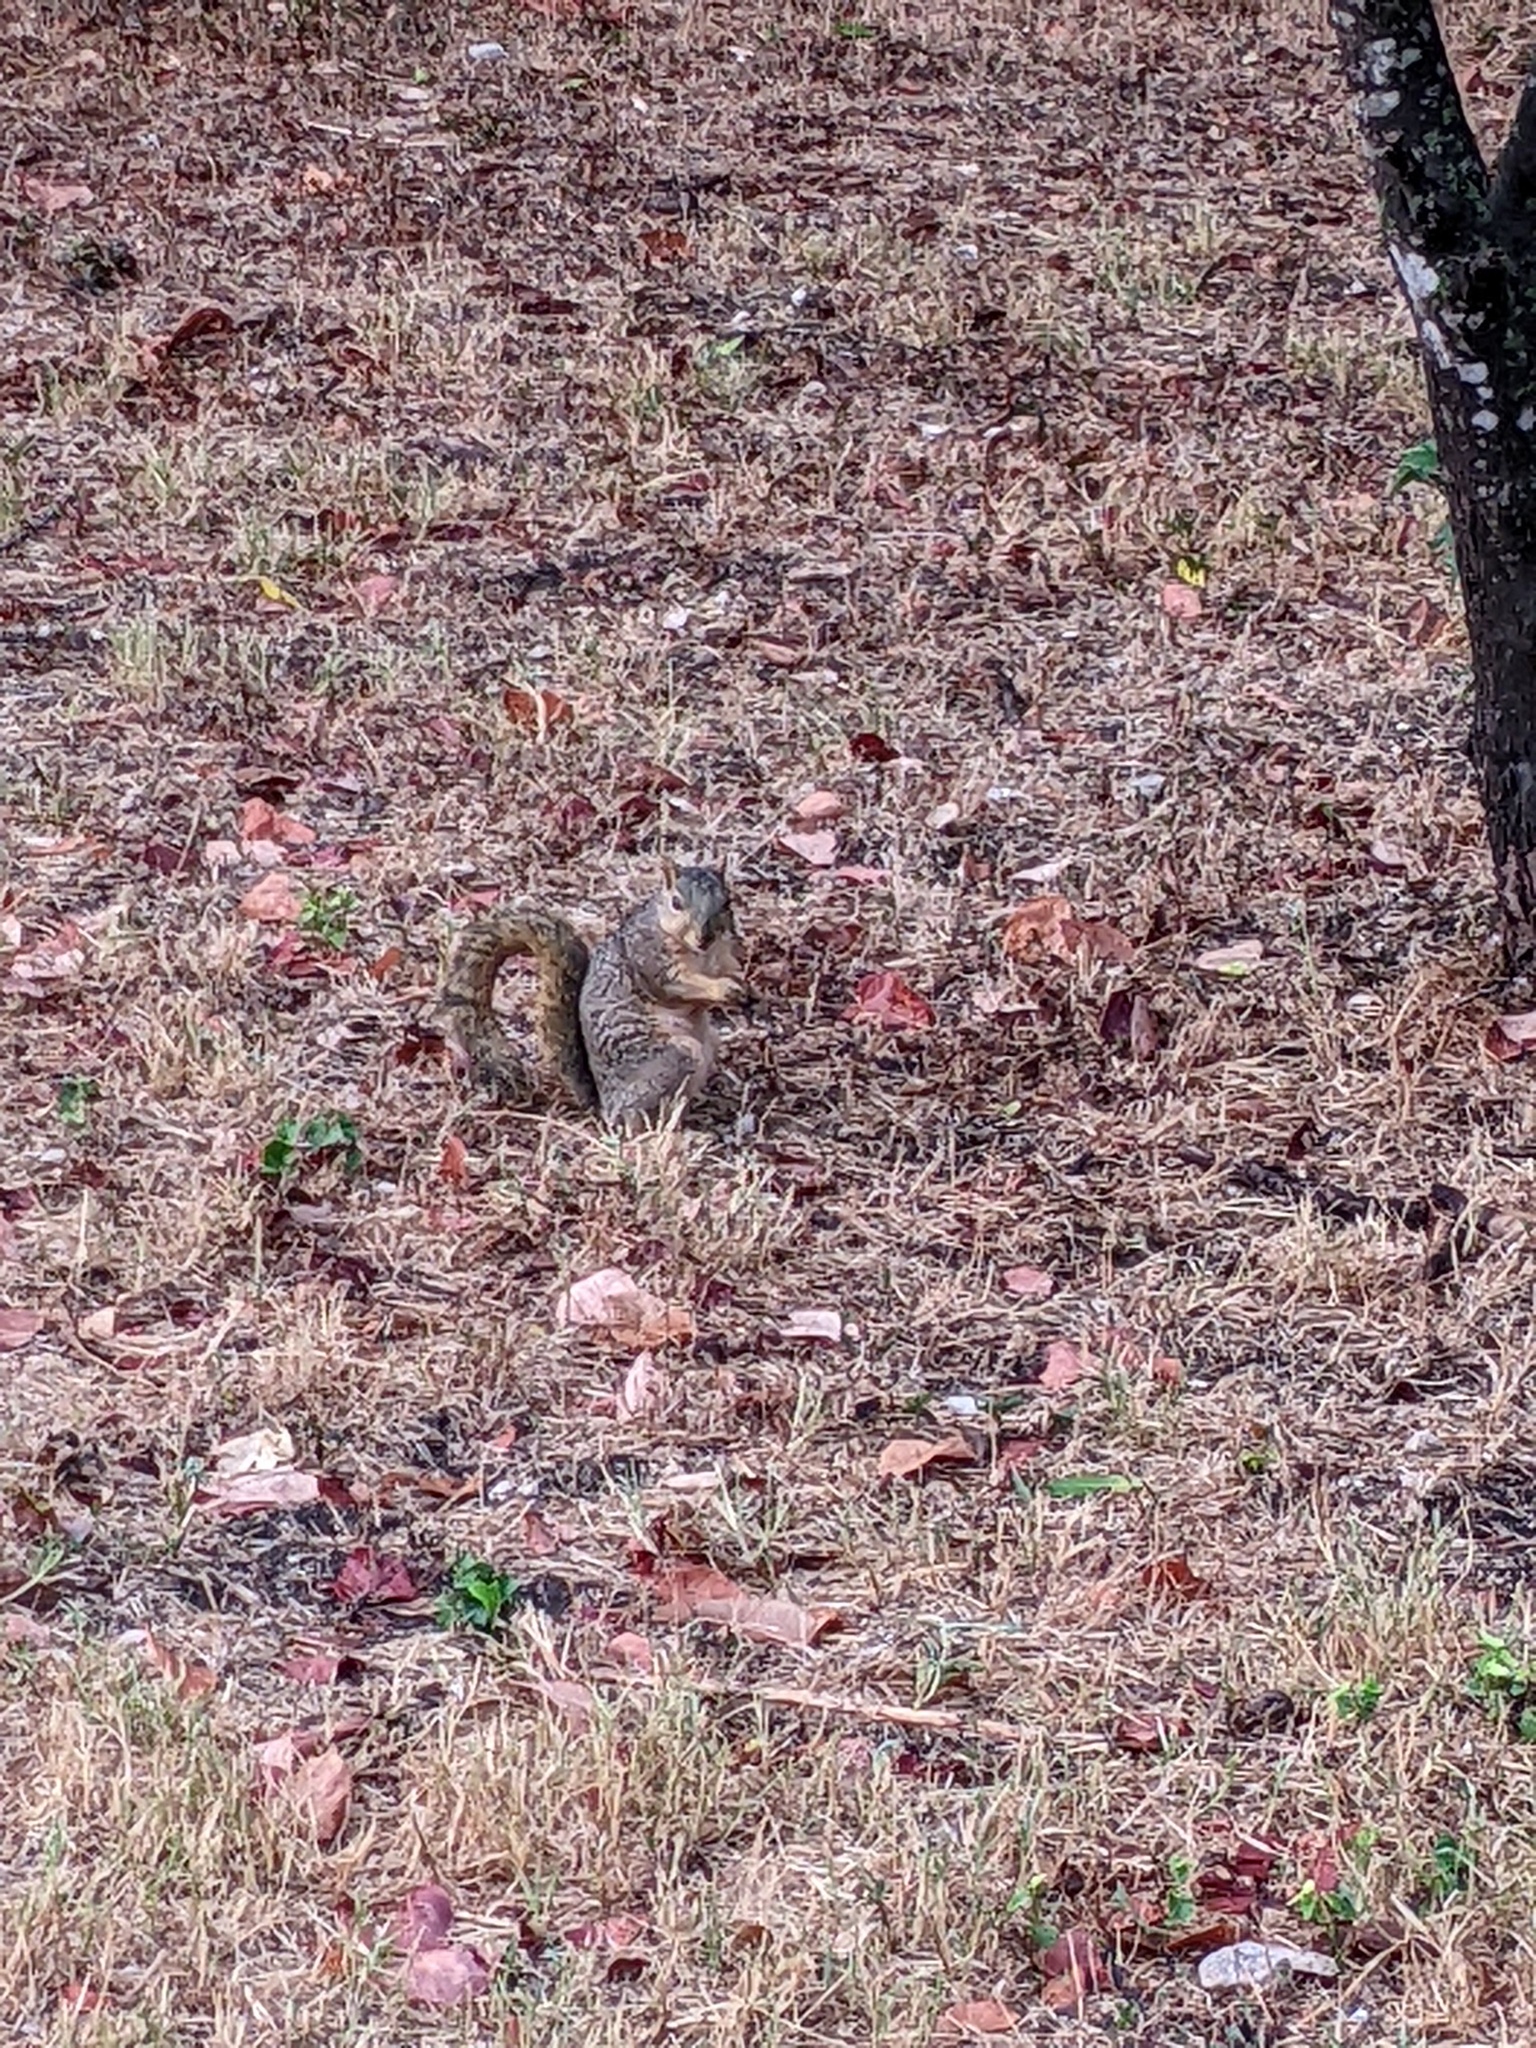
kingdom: Animalia
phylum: Chordata
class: Mammalia
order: Rodentia
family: Sciuridae
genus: Sciurus
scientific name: Sciurus niger
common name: Fox squirrel
